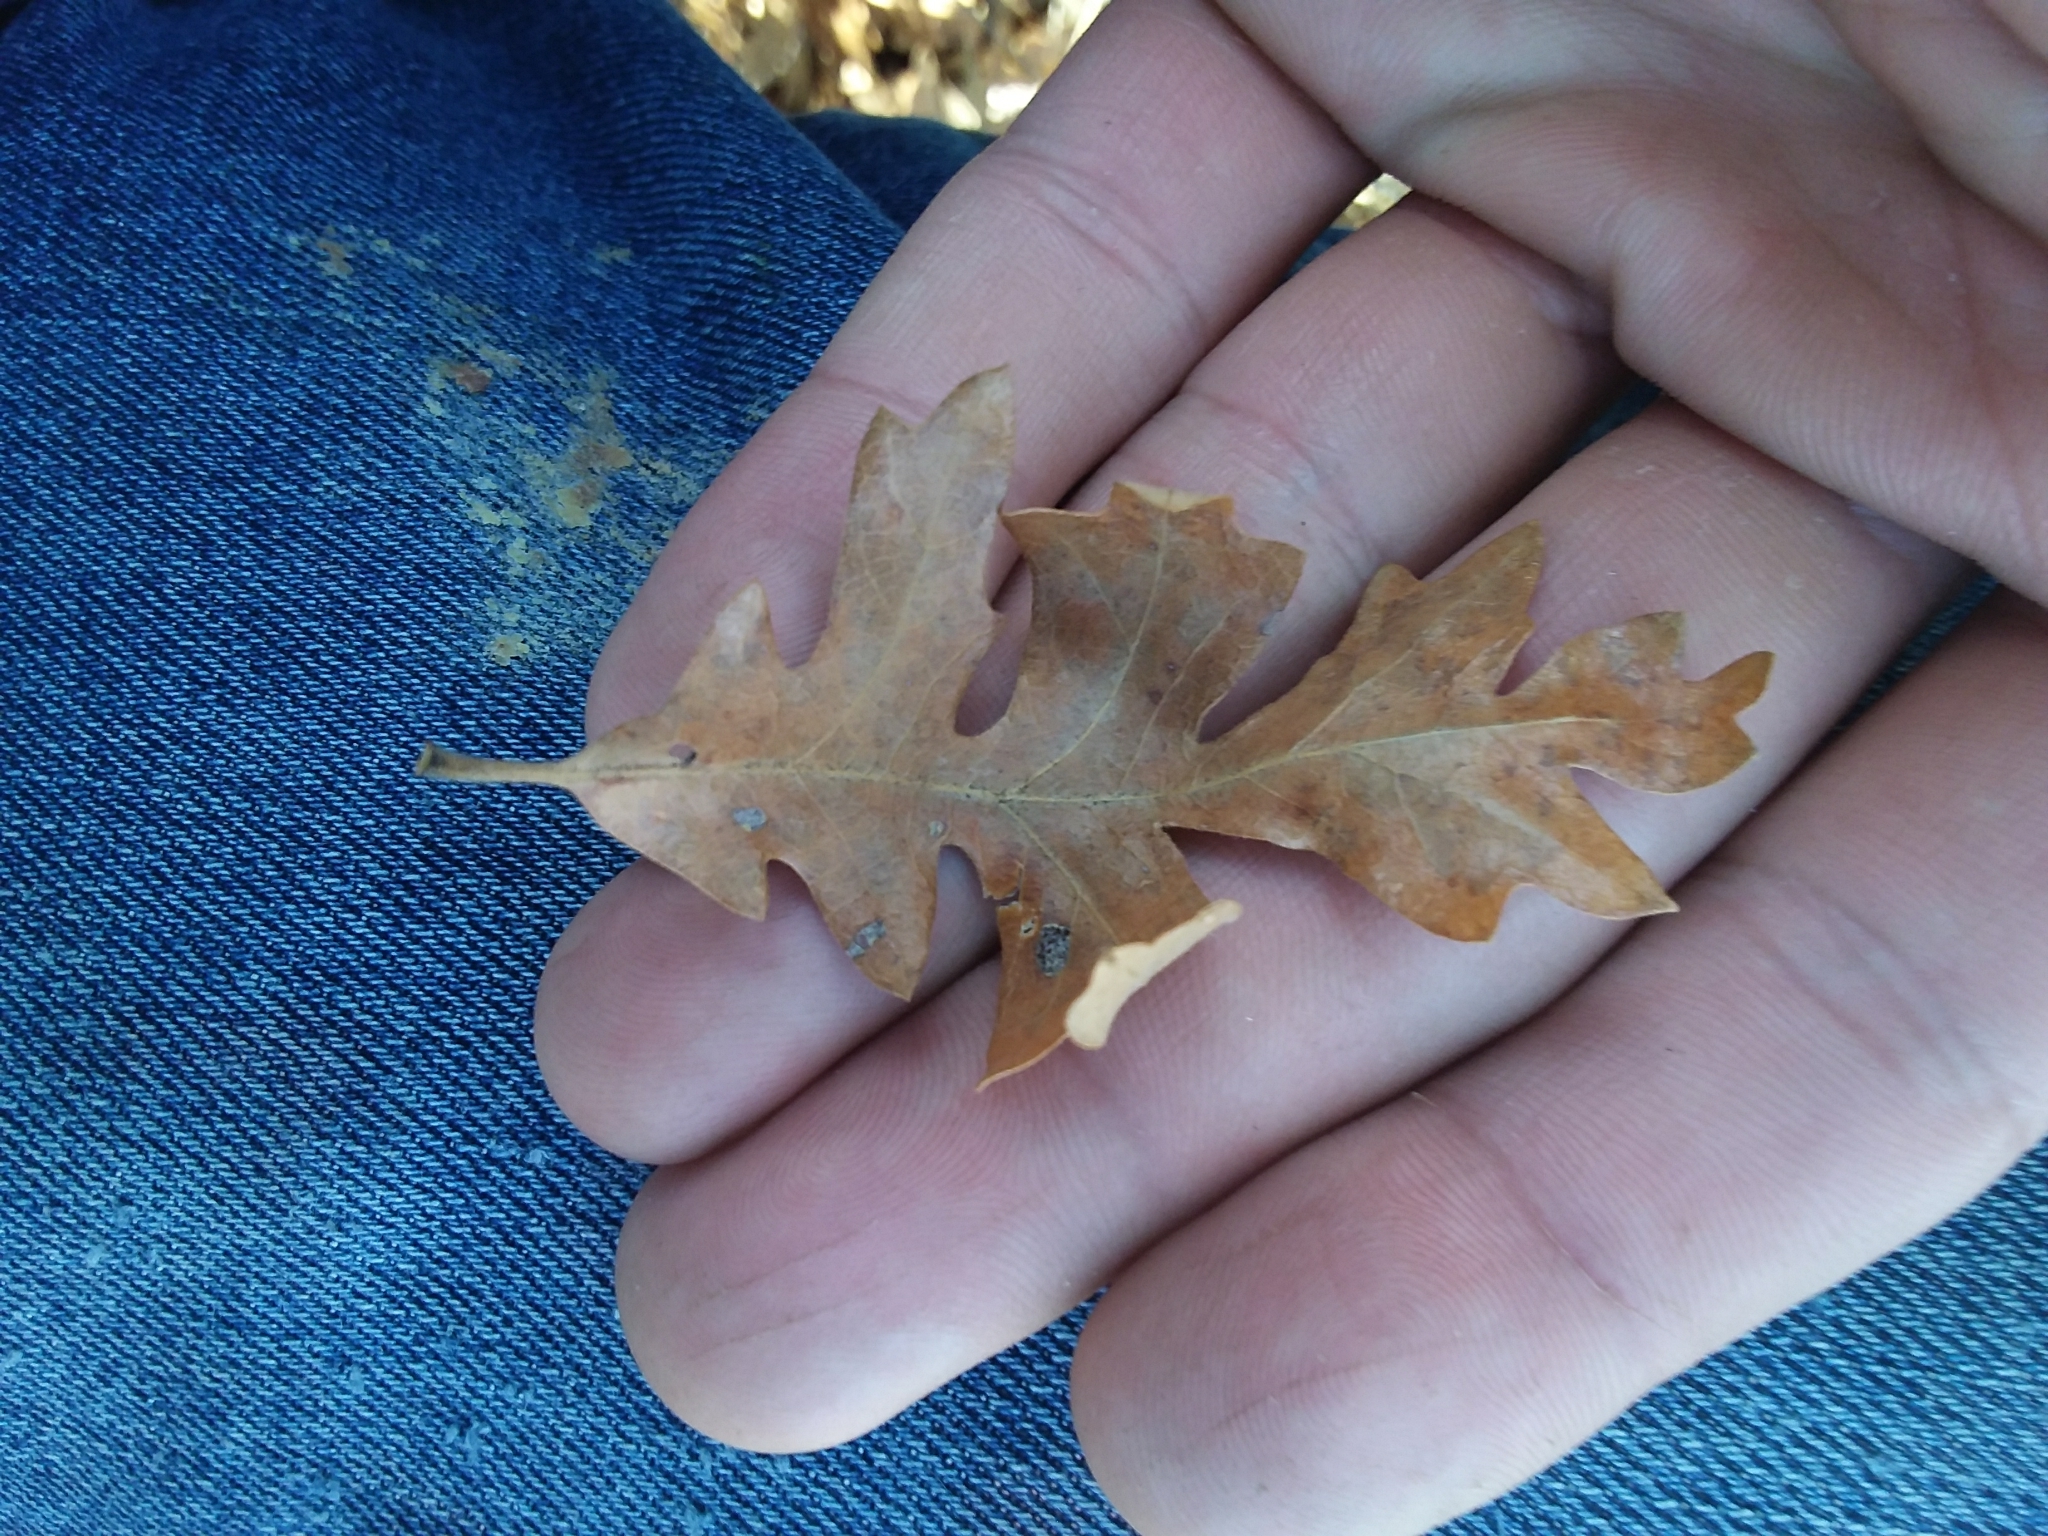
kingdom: Plantae
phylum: Tracheophyta
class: Magnoliopsida
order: Fagales
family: Fagaceae
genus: Quercus
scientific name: Quercus gambelii
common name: Gambel oak
